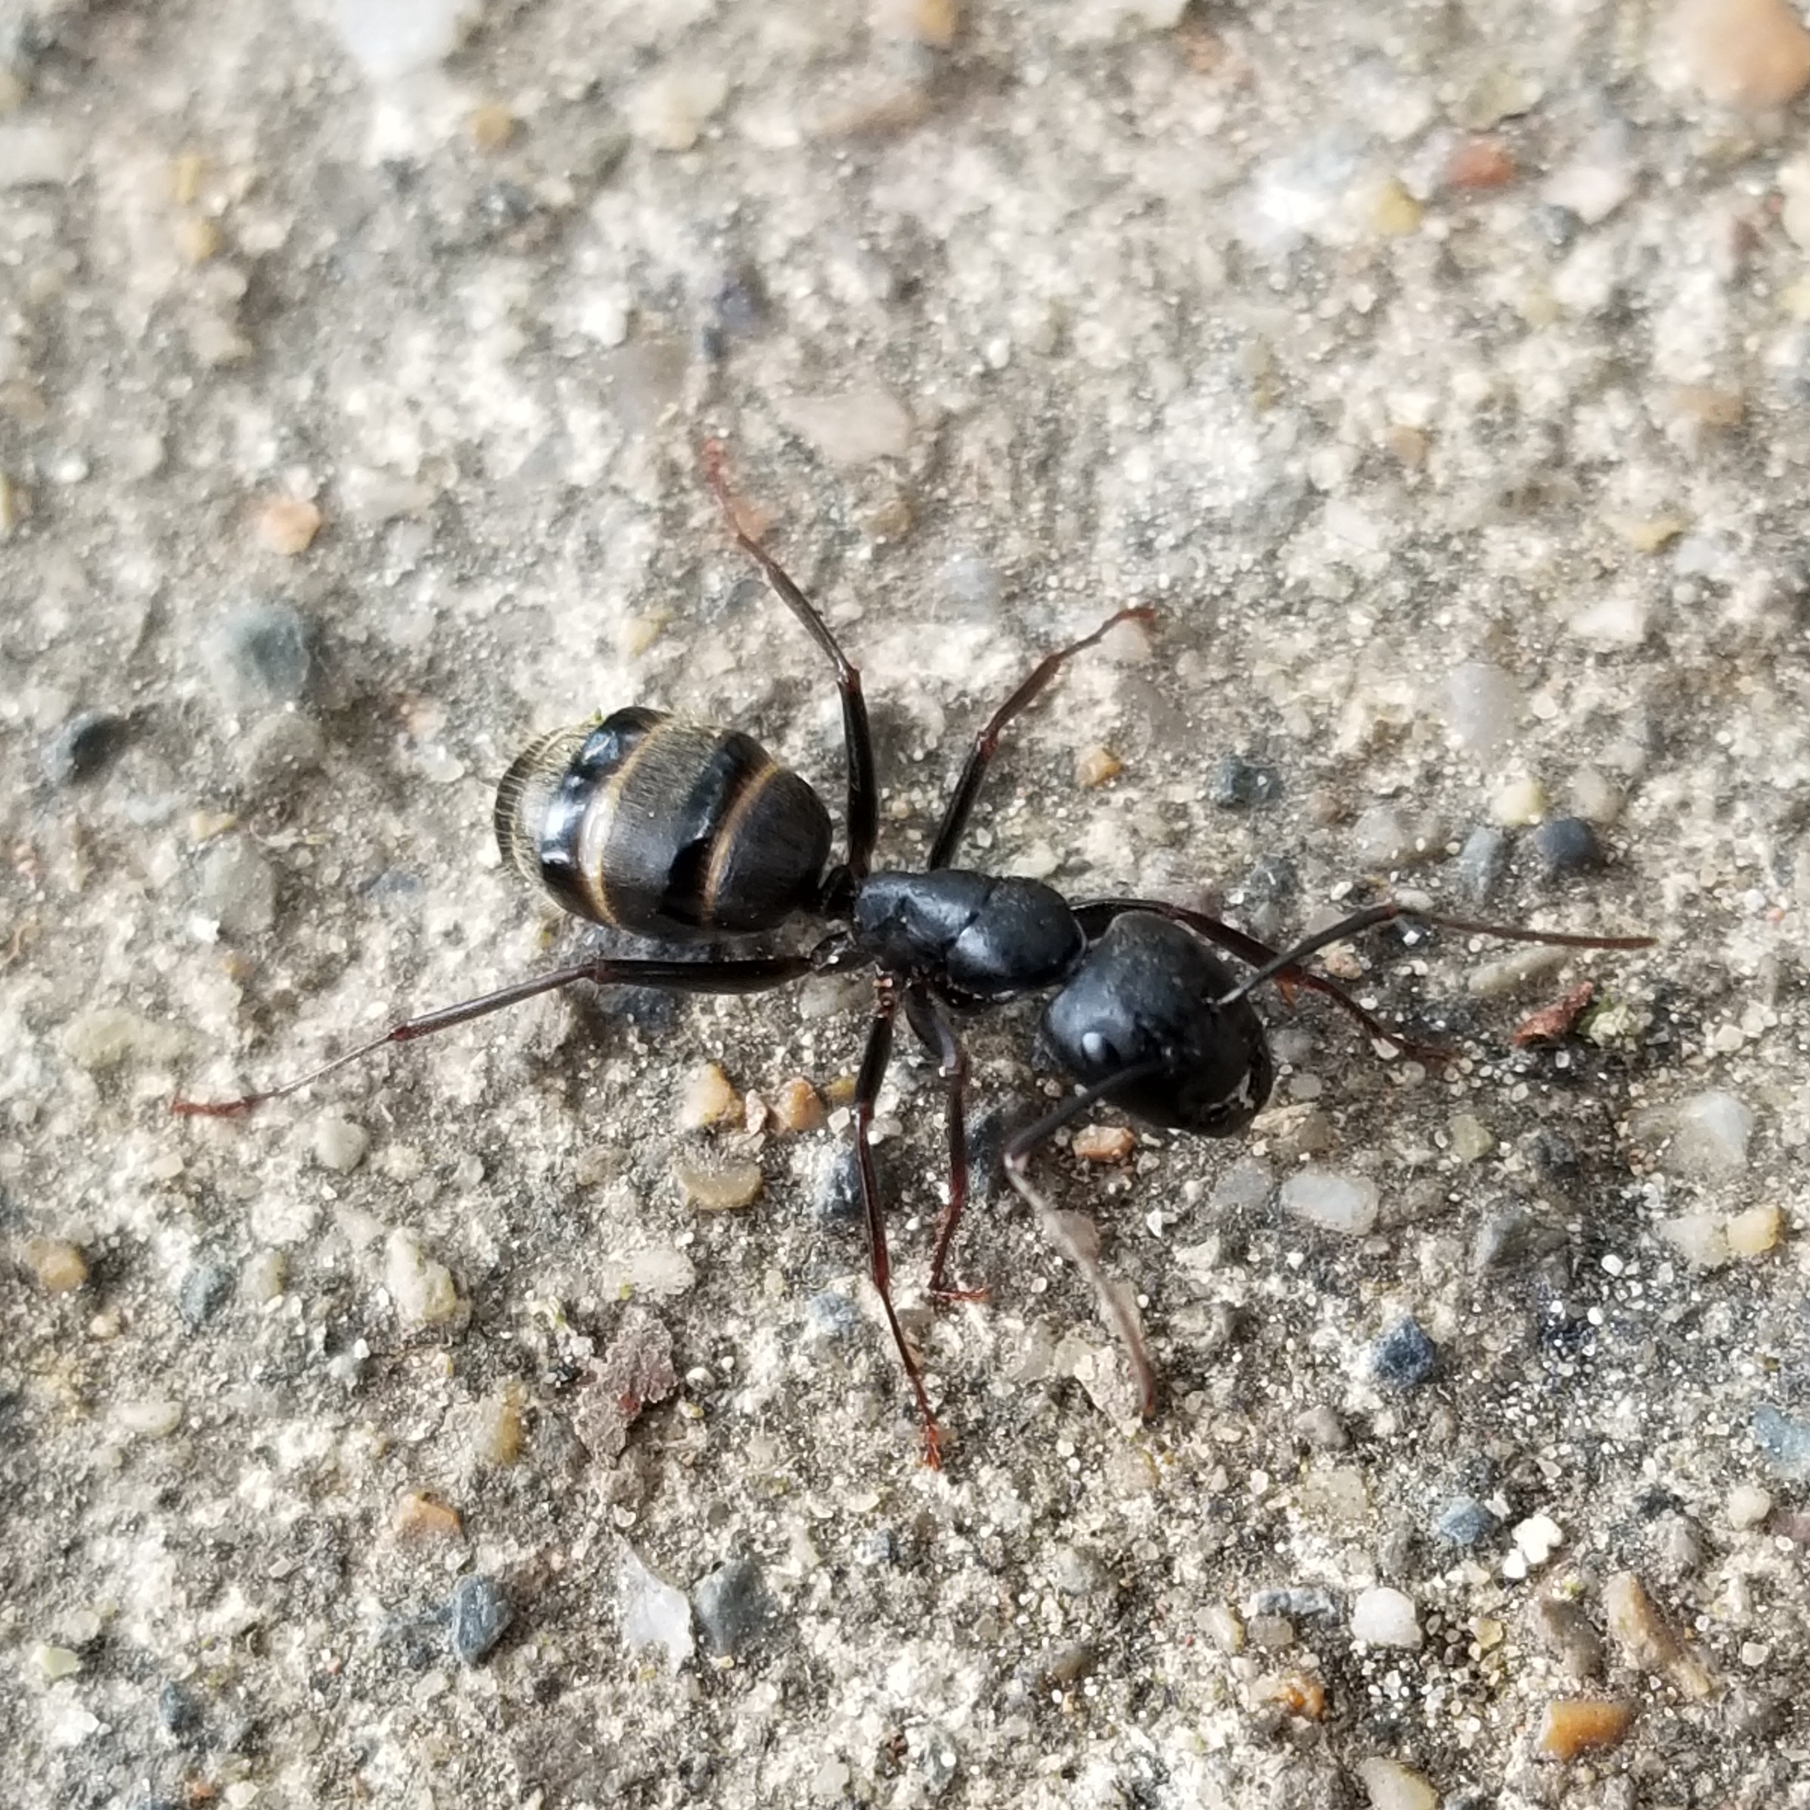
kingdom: Animalia
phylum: Arthropoda
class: Insecta
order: Hymenoptera
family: Formicidae
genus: Camponotus
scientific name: Camponotus pennsylvanicus
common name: Black carpenter ant
